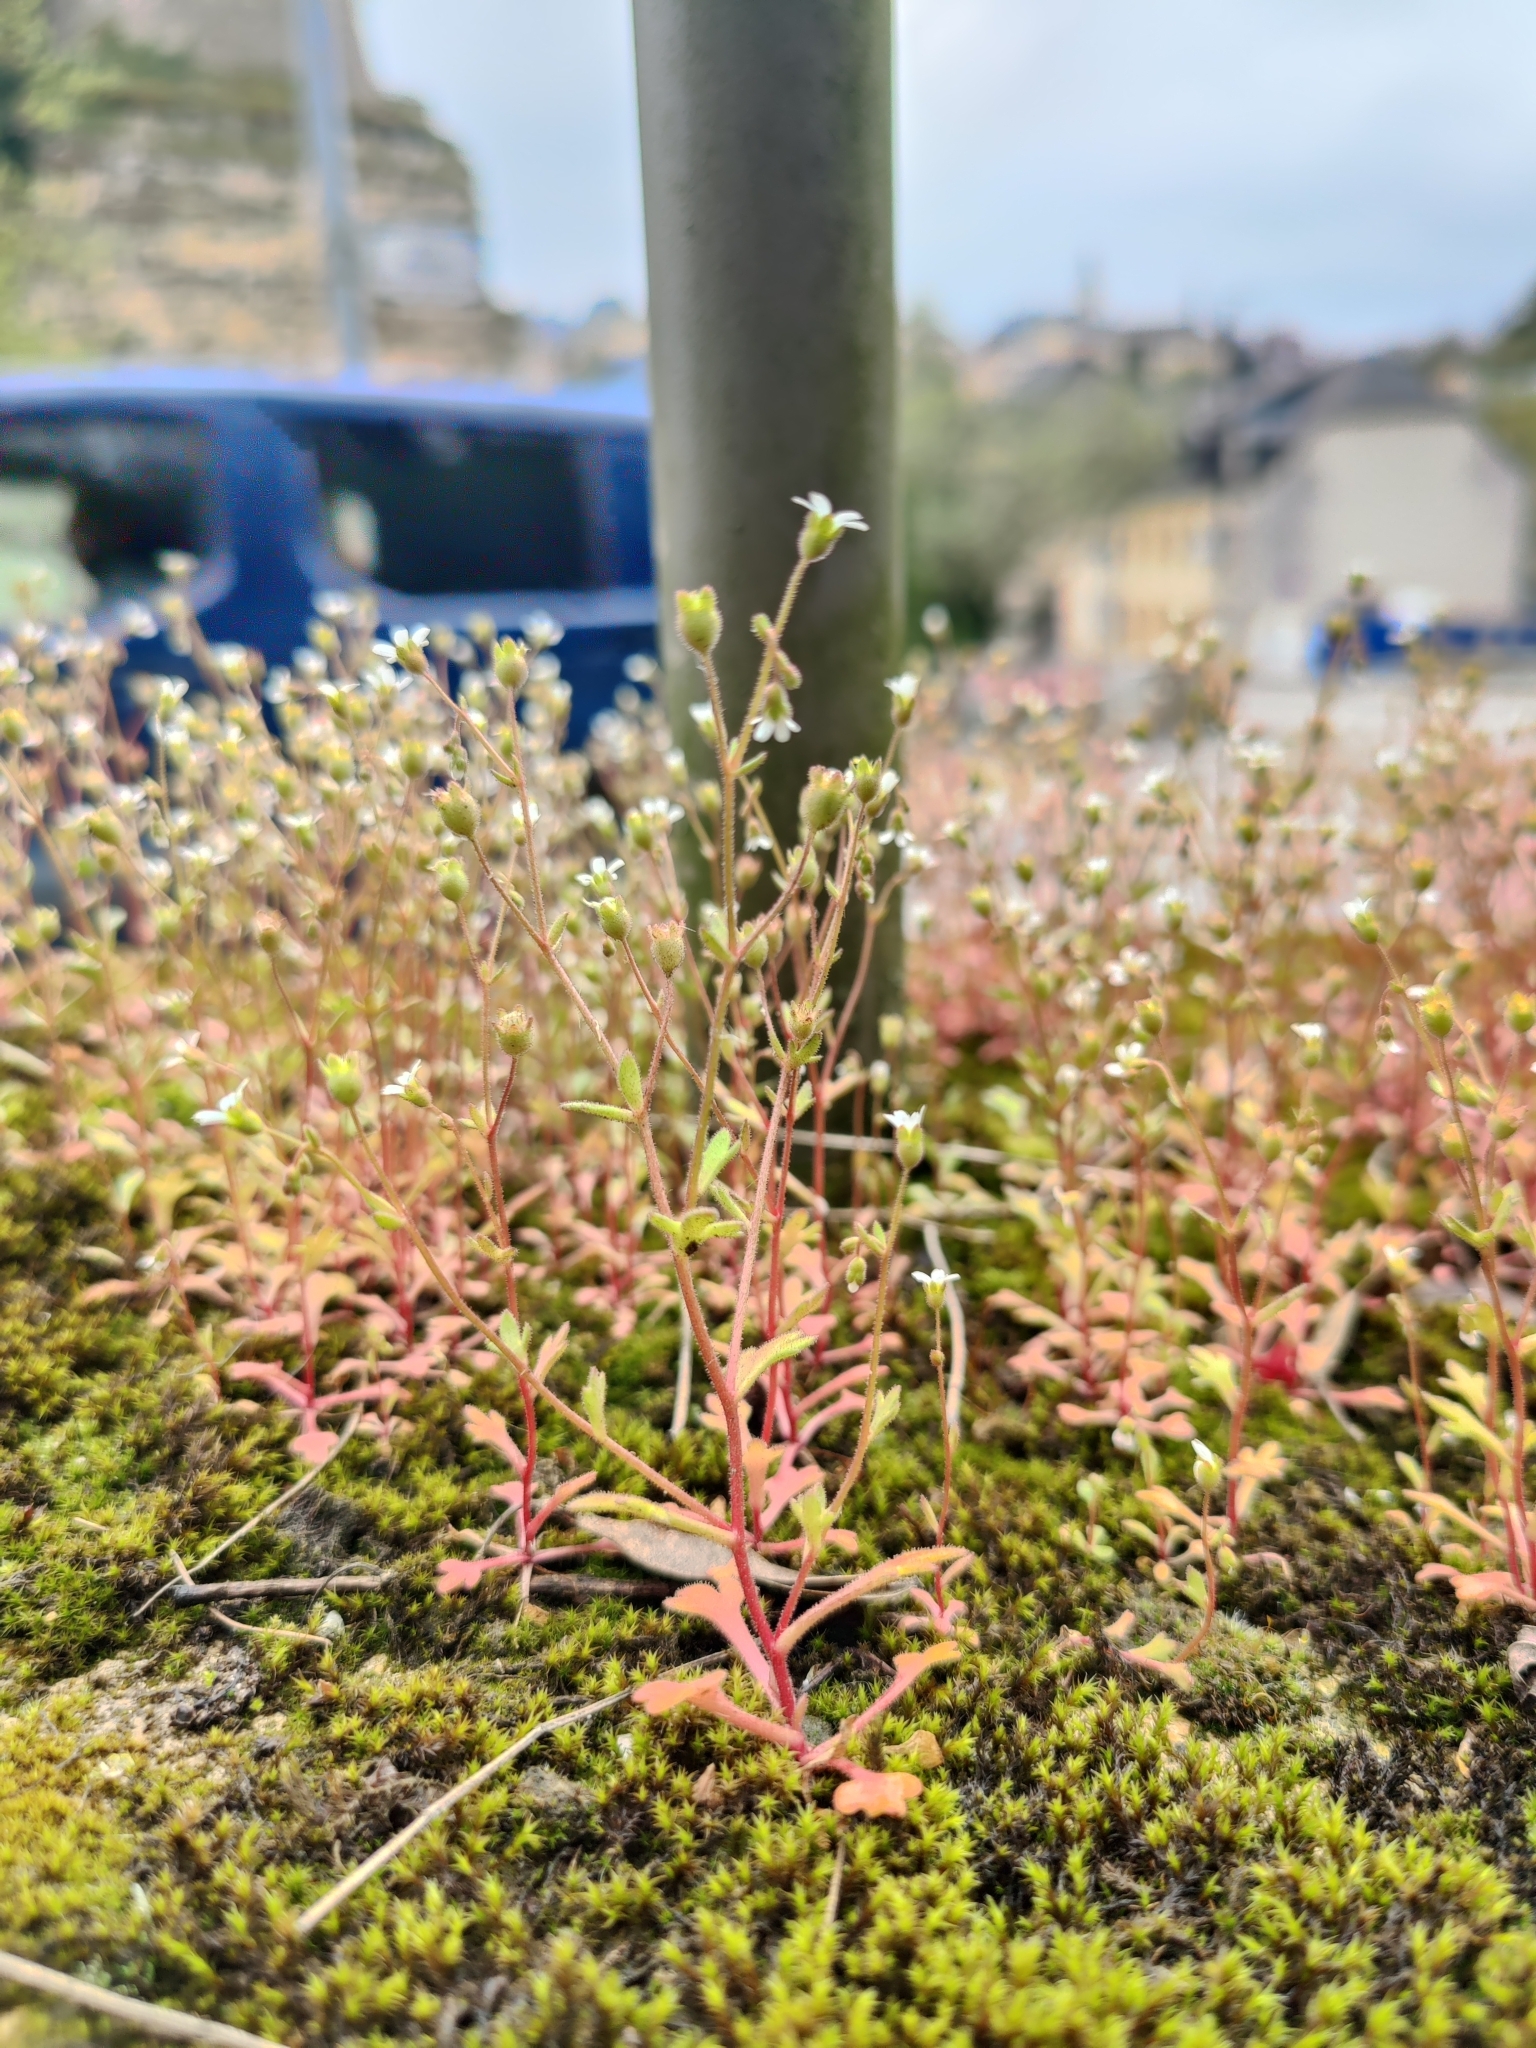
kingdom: Plantae
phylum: Tracheophyta
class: Magnoliopsida
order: Saxifragales
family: Saxifragaceae
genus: Saxifraga
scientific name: Saxifraga tridactylites
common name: Rue-leaved saxifrage
